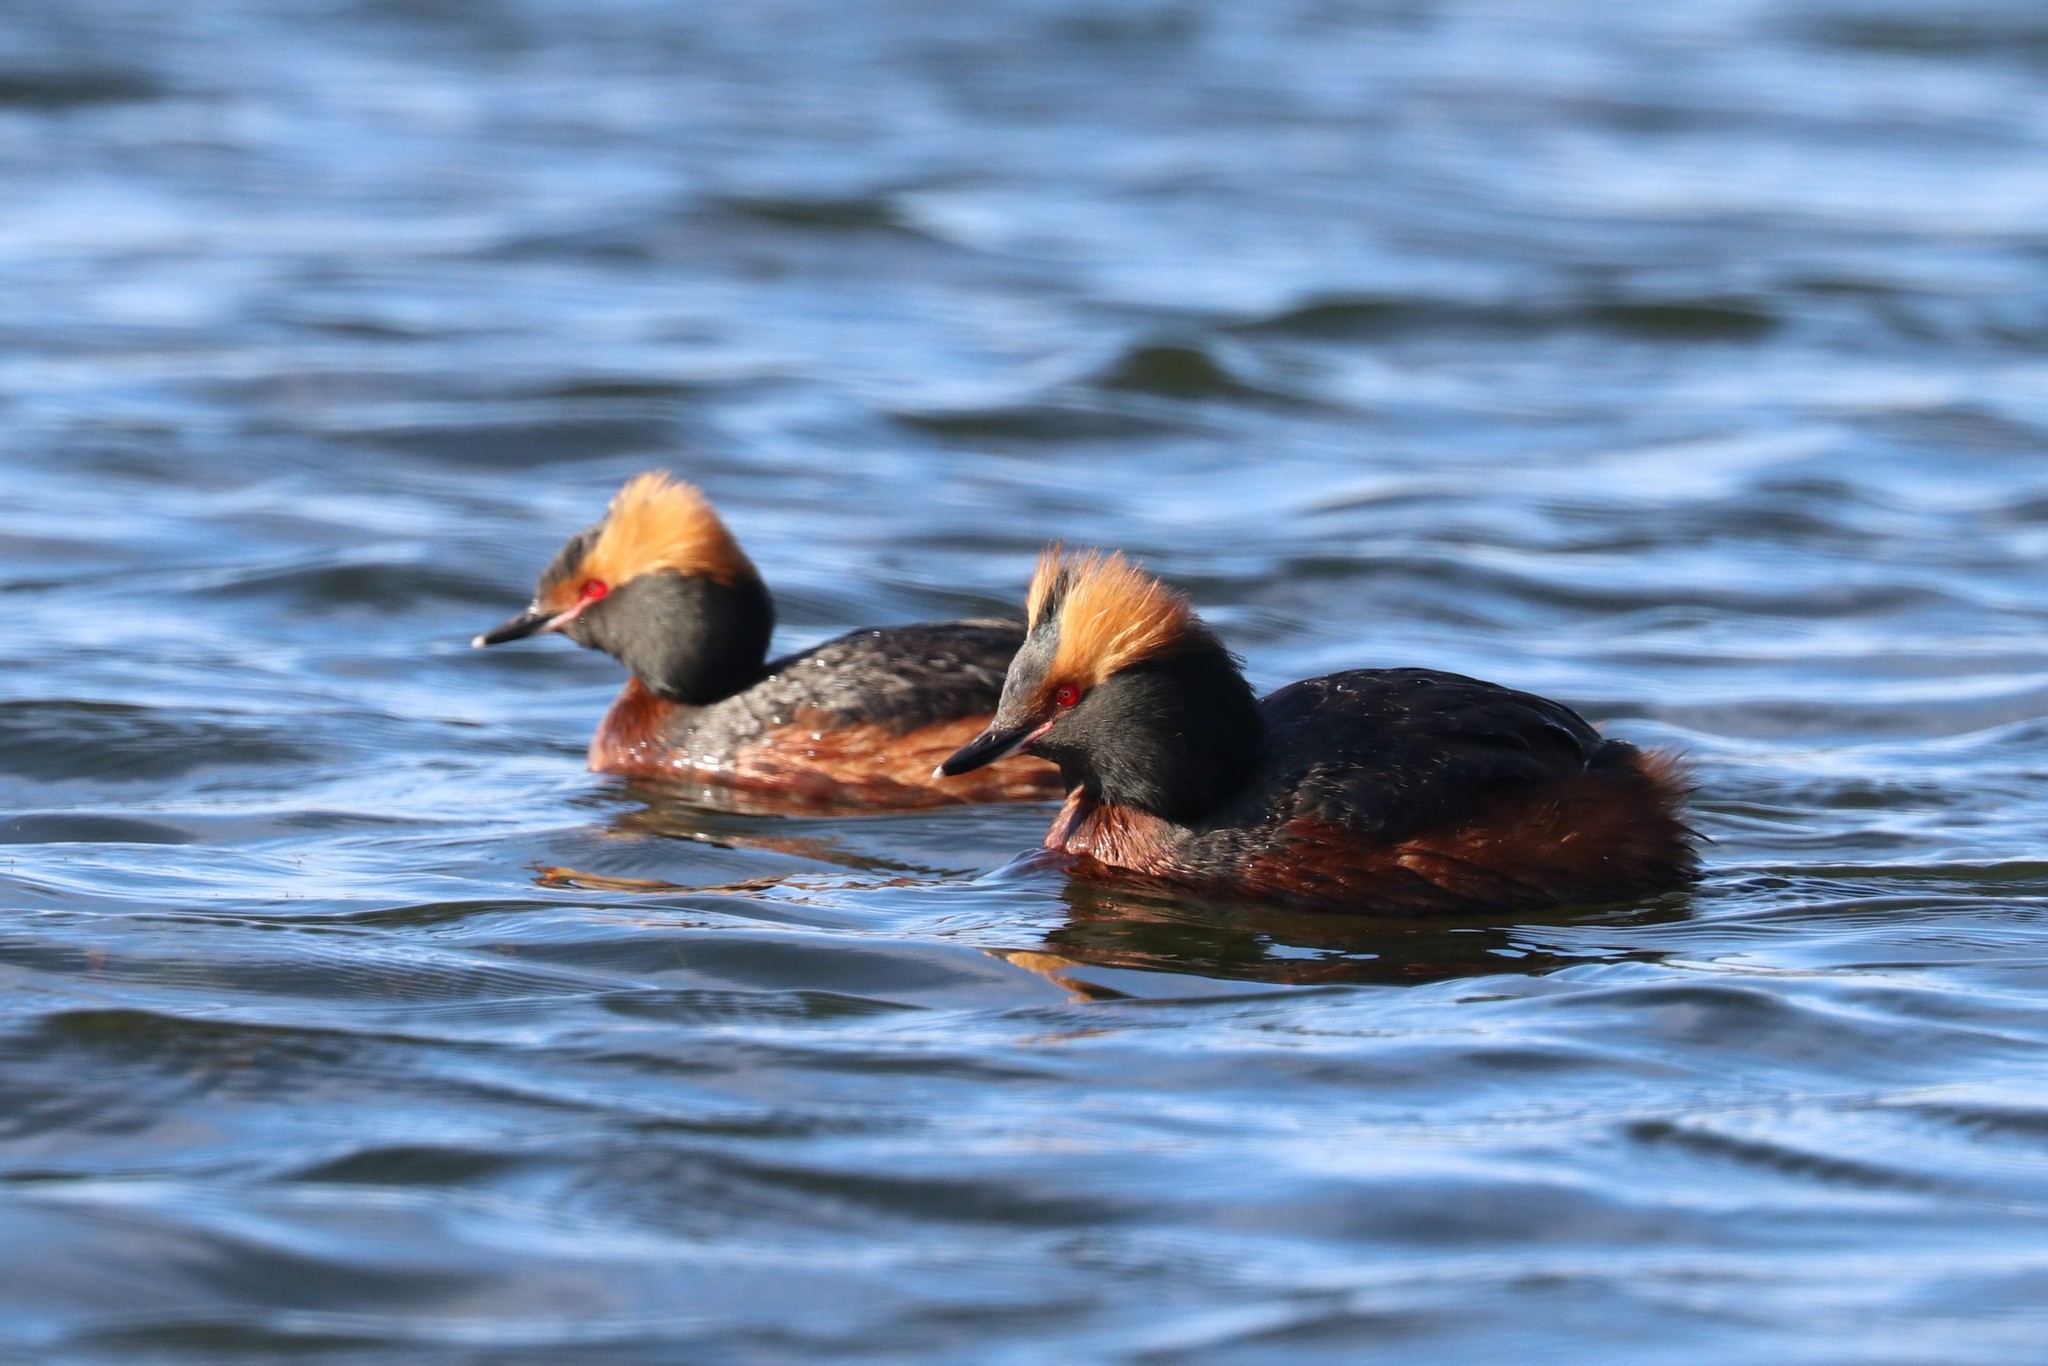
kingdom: Animalia
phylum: Chordata
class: Aves
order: Podicipediformes
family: Podicipedidae
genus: Podiceps
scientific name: Podiceps auritus
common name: Horned grebe
